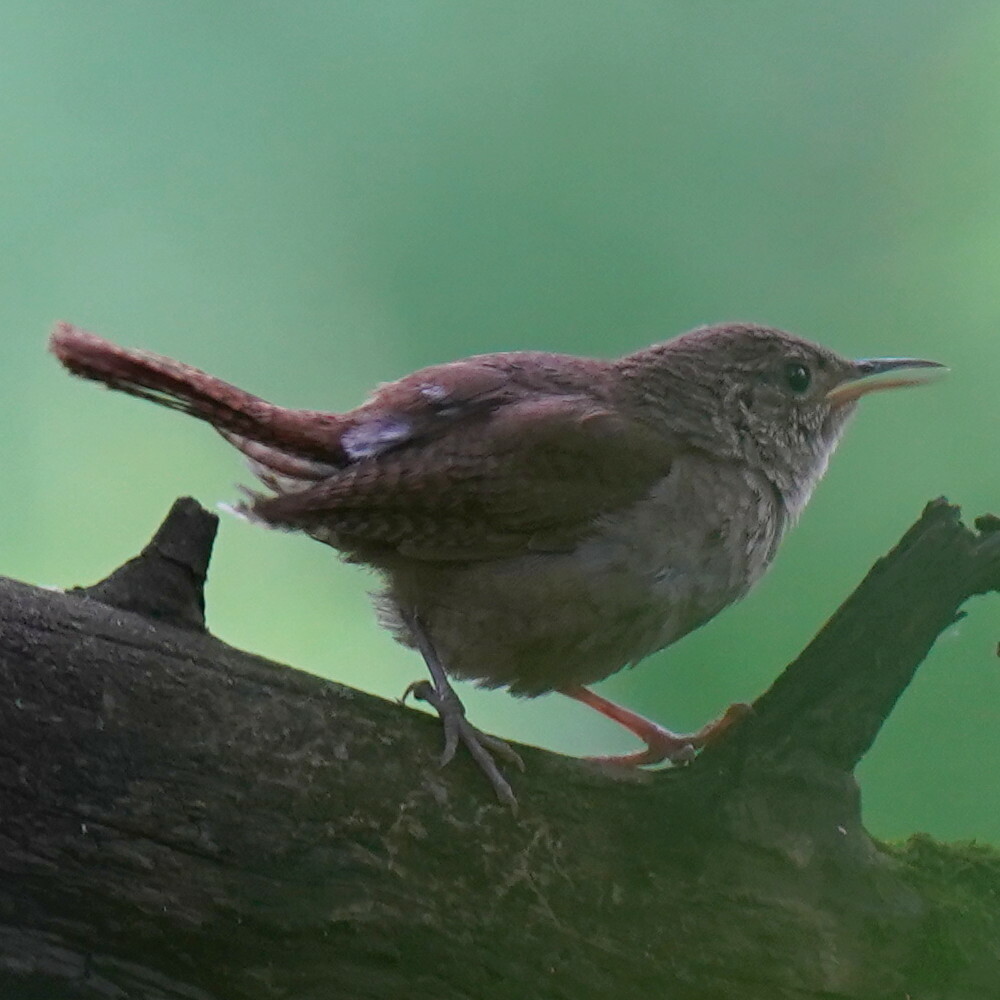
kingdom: Animalia
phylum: Chordata
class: Aves
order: Passeriformes
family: Troglodytidae
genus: Troglodytes
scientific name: Troglodytes aedon
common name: House wren
